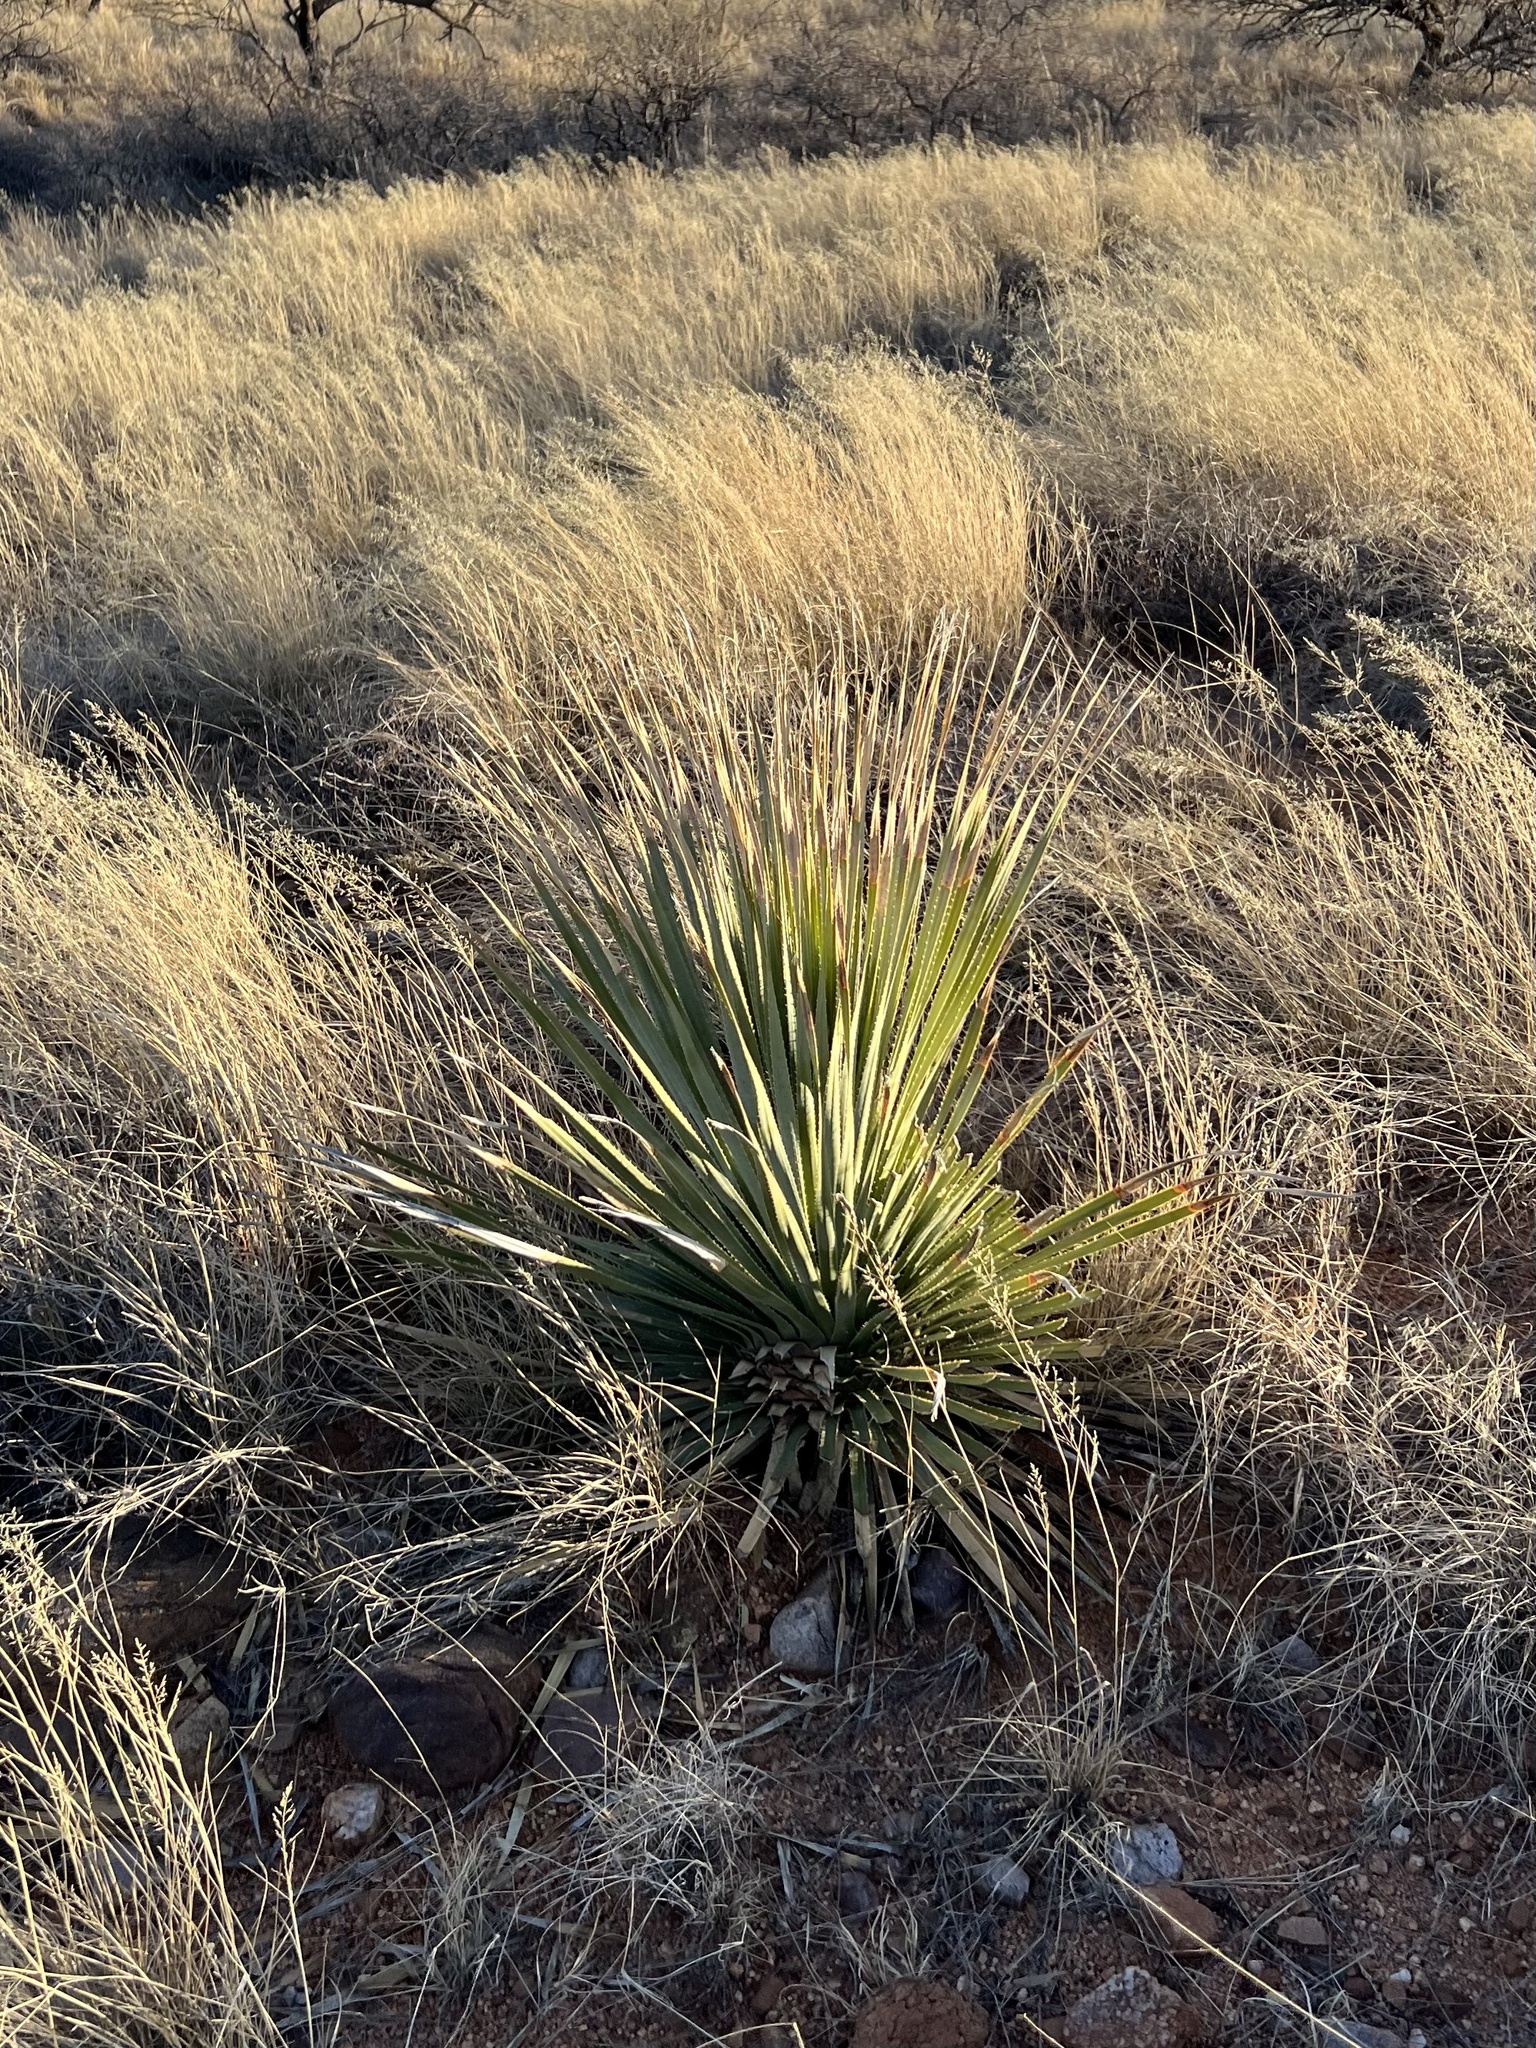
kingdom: Plantae
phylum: Tracheophyta
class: Liliopsida
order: Asparagales
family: Asparagaceae
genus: Dasylirion
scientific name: Dasylirion wheeleri
